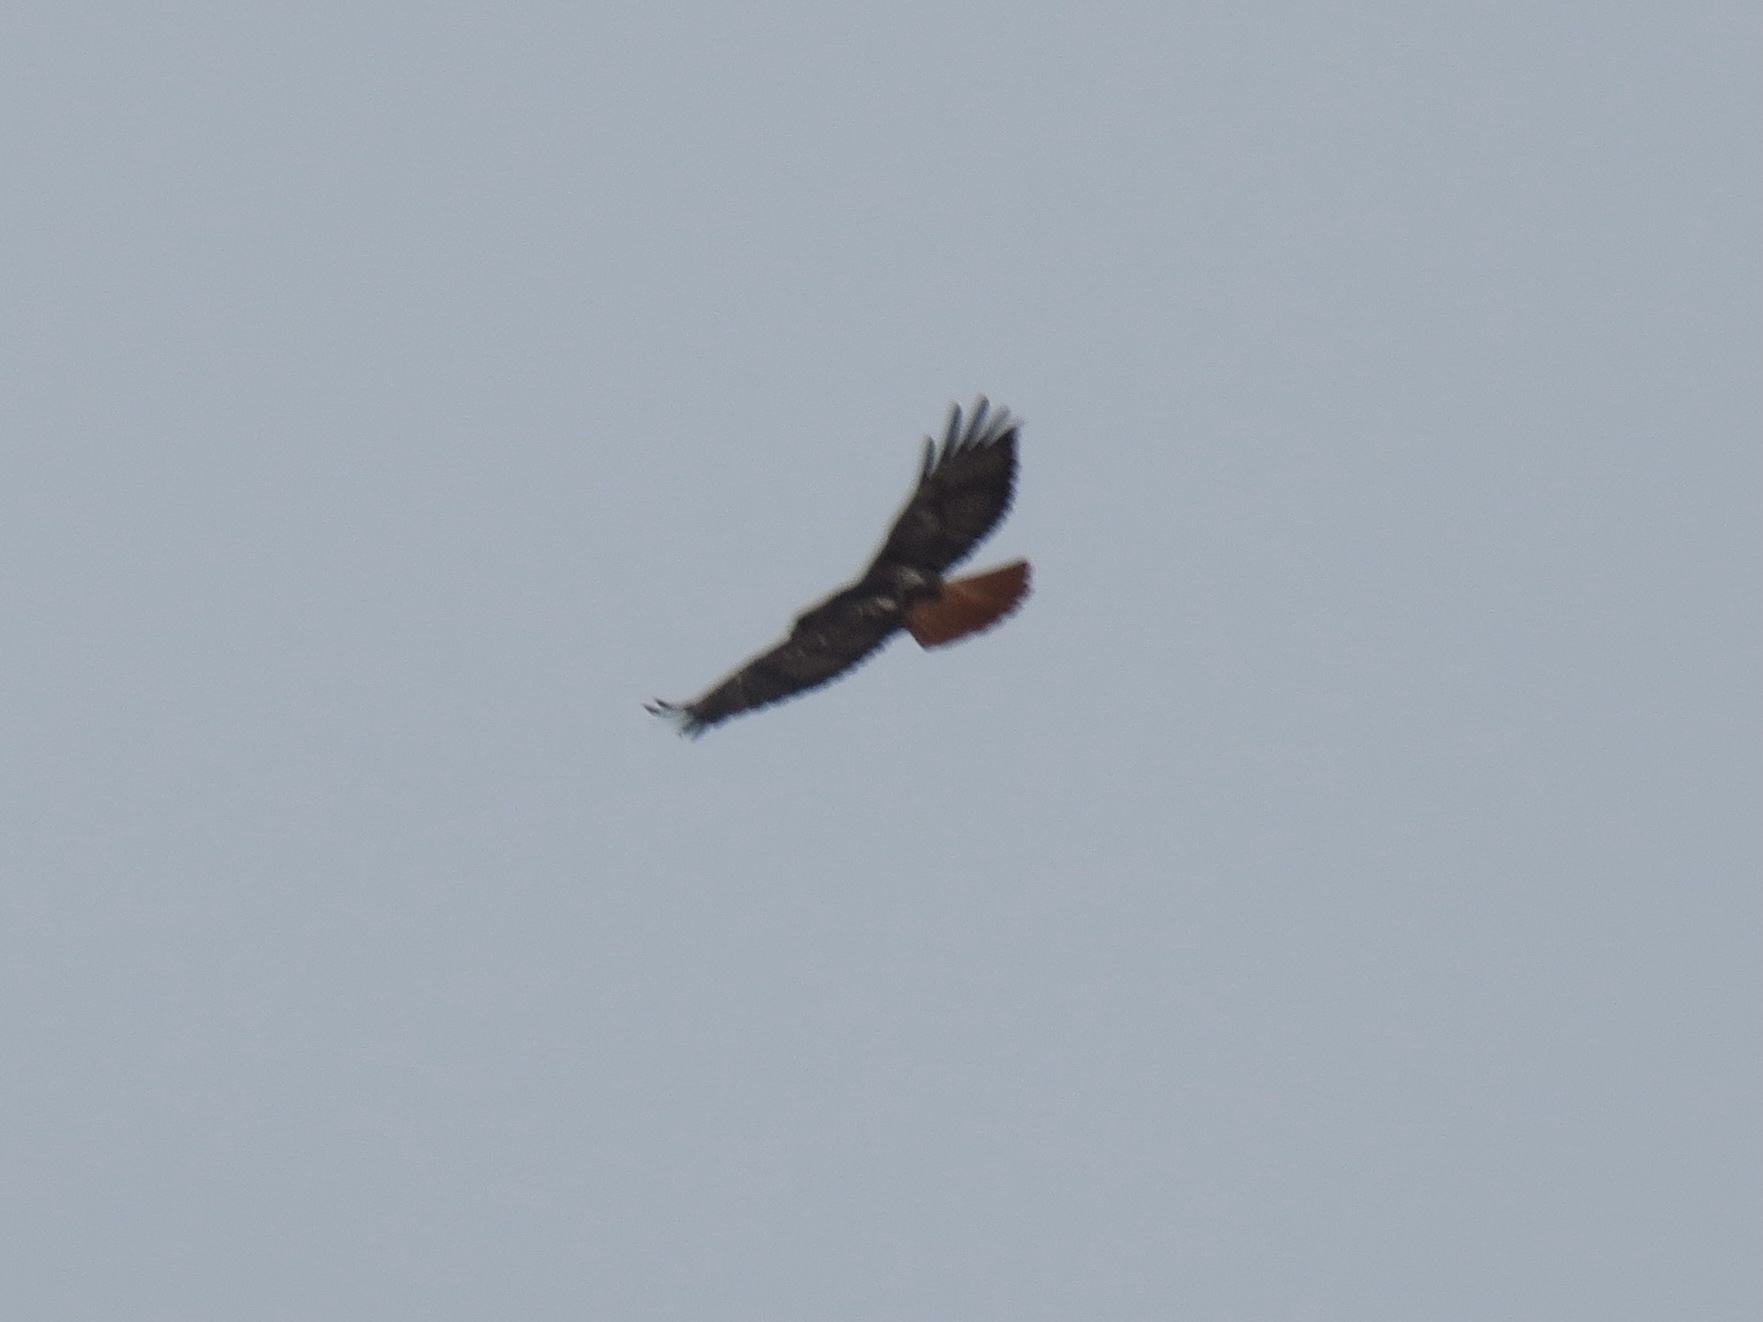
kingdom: Animalia
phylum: Chordata
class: Aves
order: Accipitriformes
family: Accipitridae
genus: Buteo
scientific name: Buteo jamaicensis
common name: Red-tailed hawk
